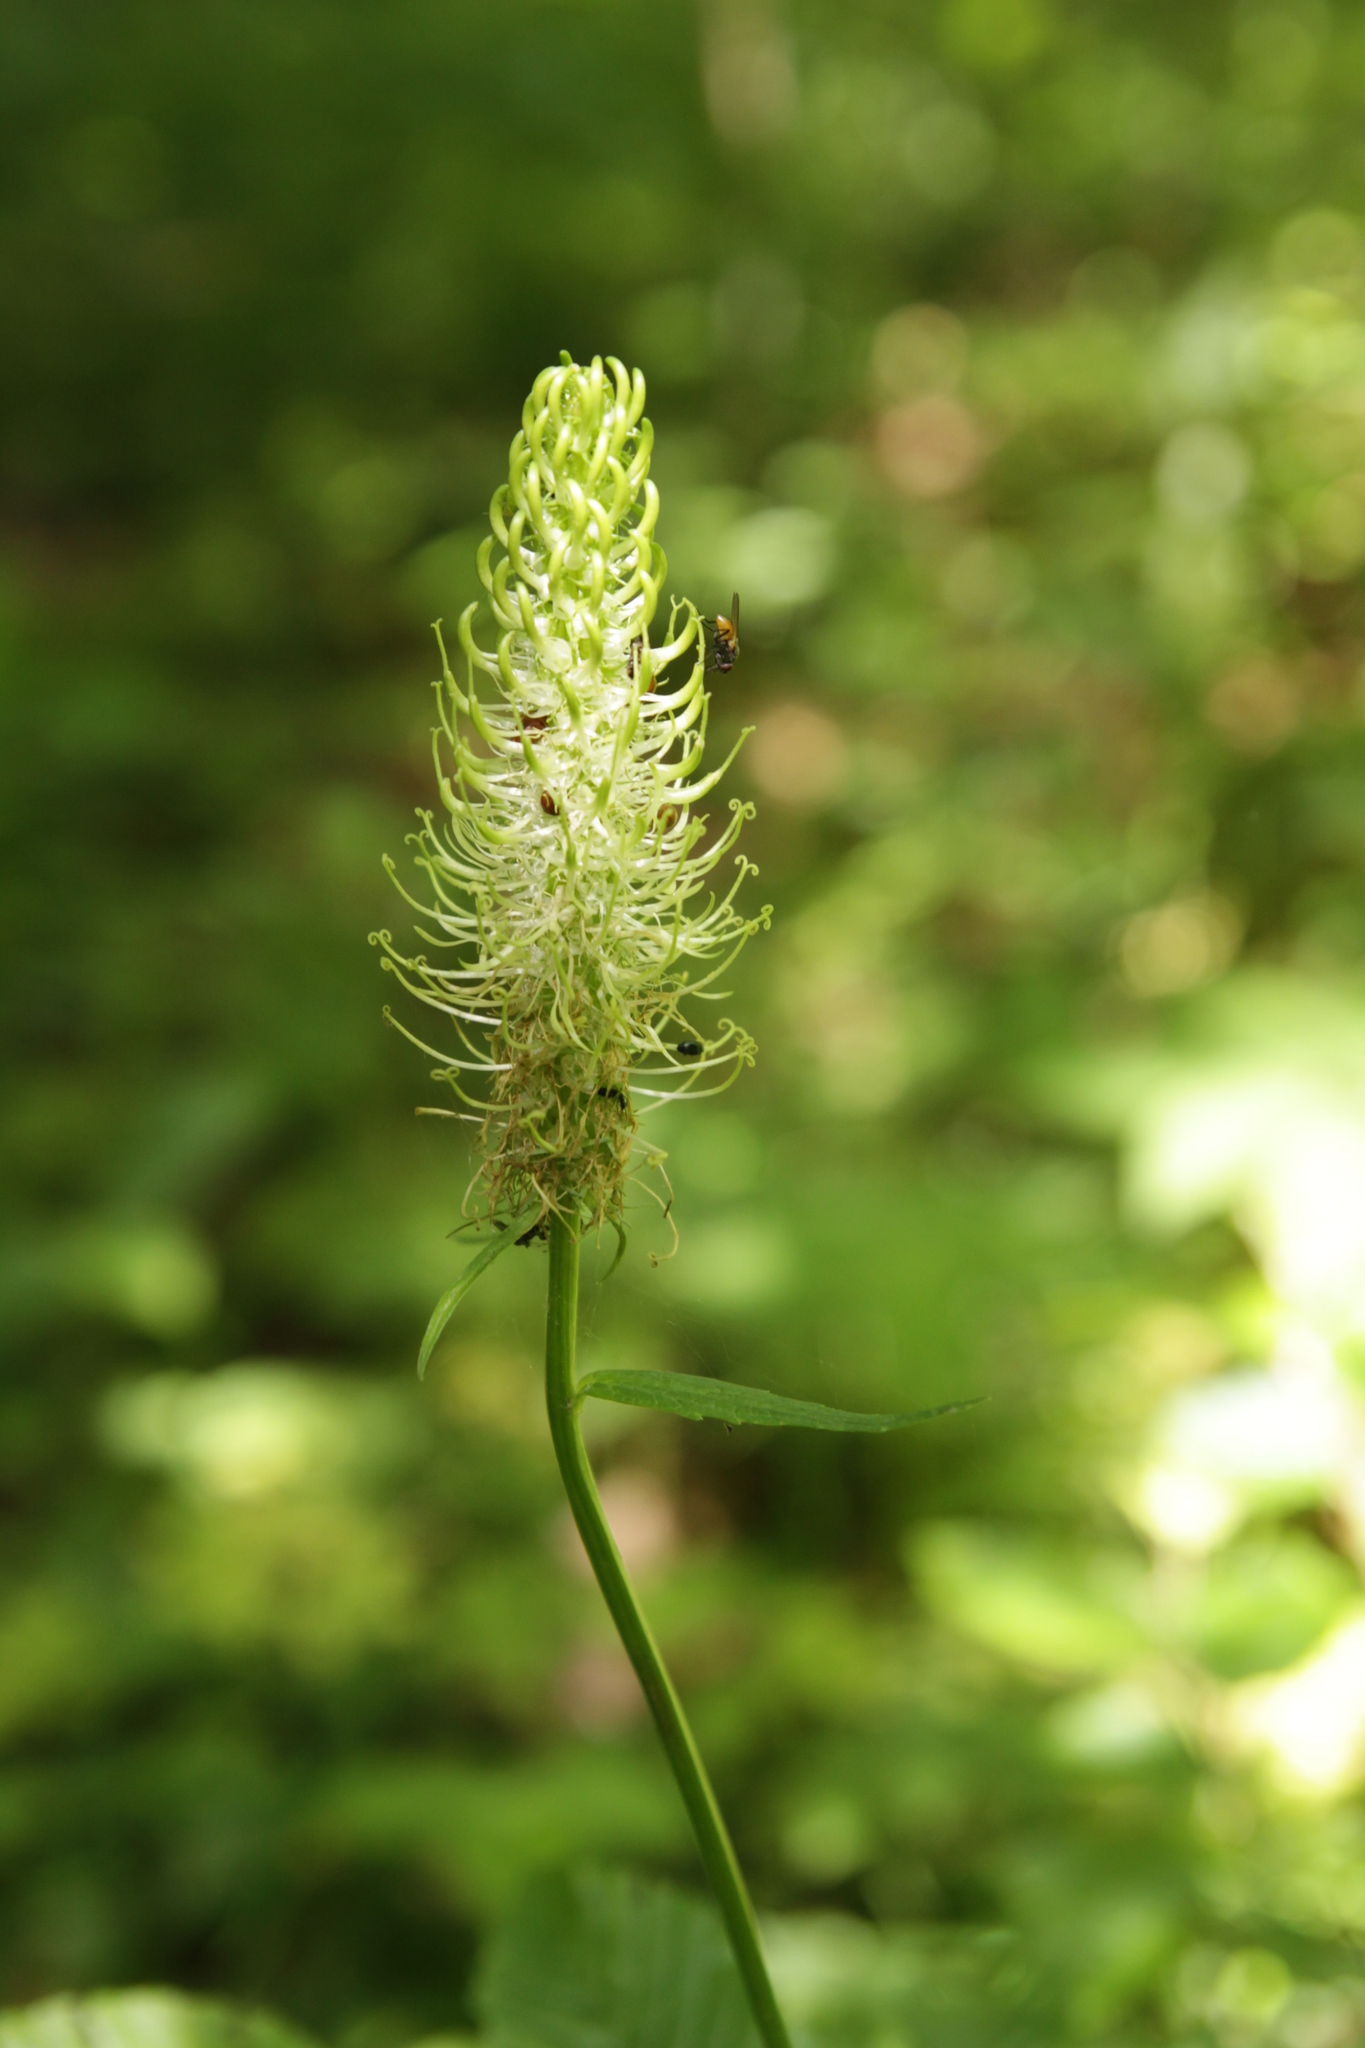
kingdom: Plantae
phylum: Tracheophyta
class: Magnoliopsida
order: Asterales
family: Campanulaceae
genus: Phyteuma
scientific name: Phyteuma spicatum
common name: Spiked rampion
